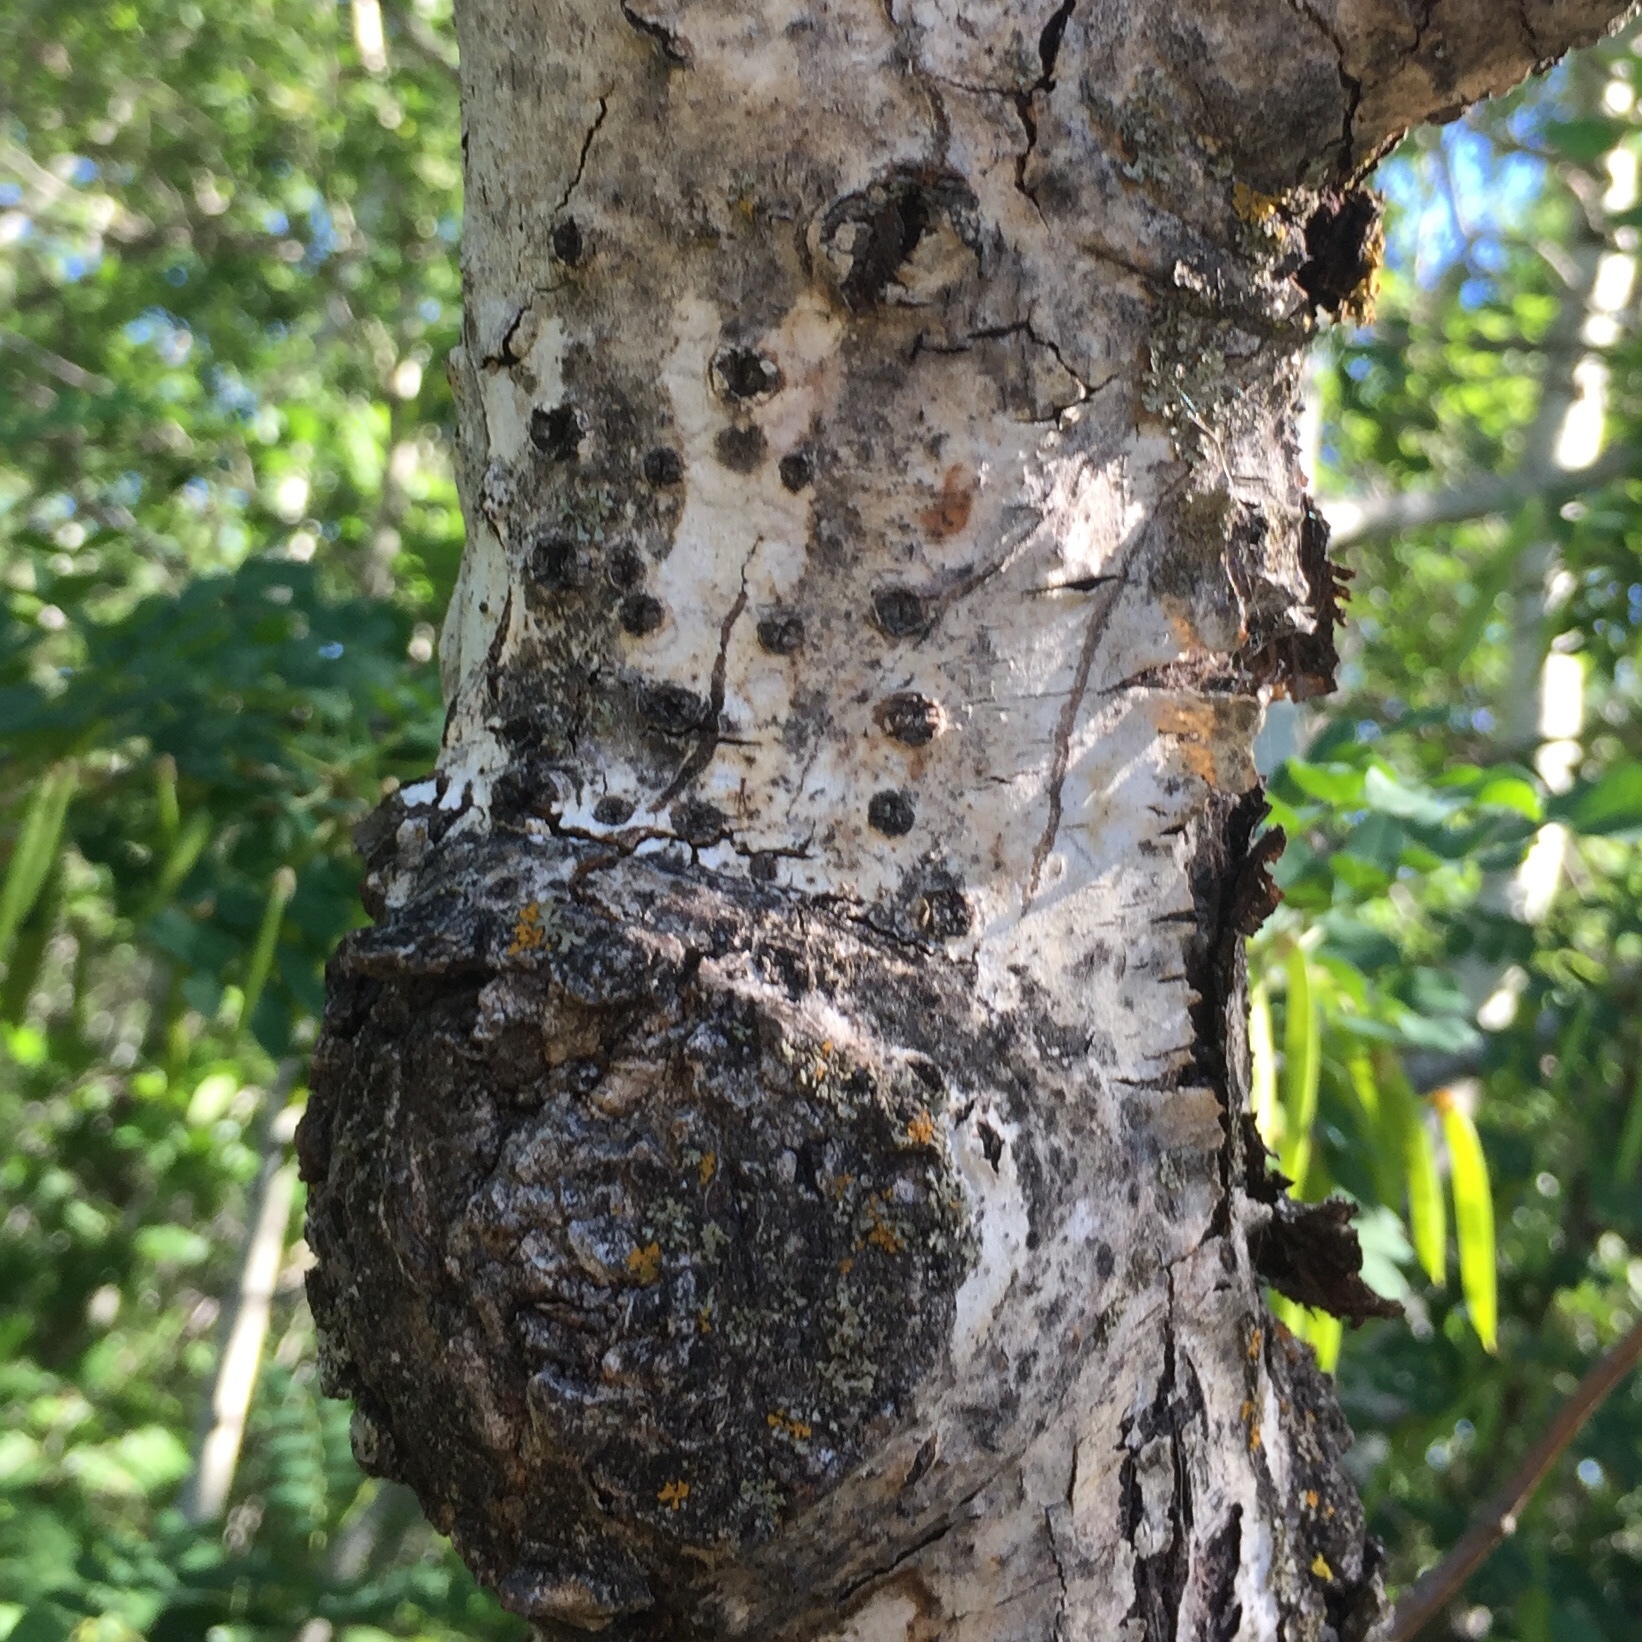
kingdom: Animalia
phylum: Chordata
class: Aves
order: Piciformes
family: Picidae
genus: Sphyrapicus
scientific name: Sphyrapicus varius
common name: Yellow-bellied sapsucker
